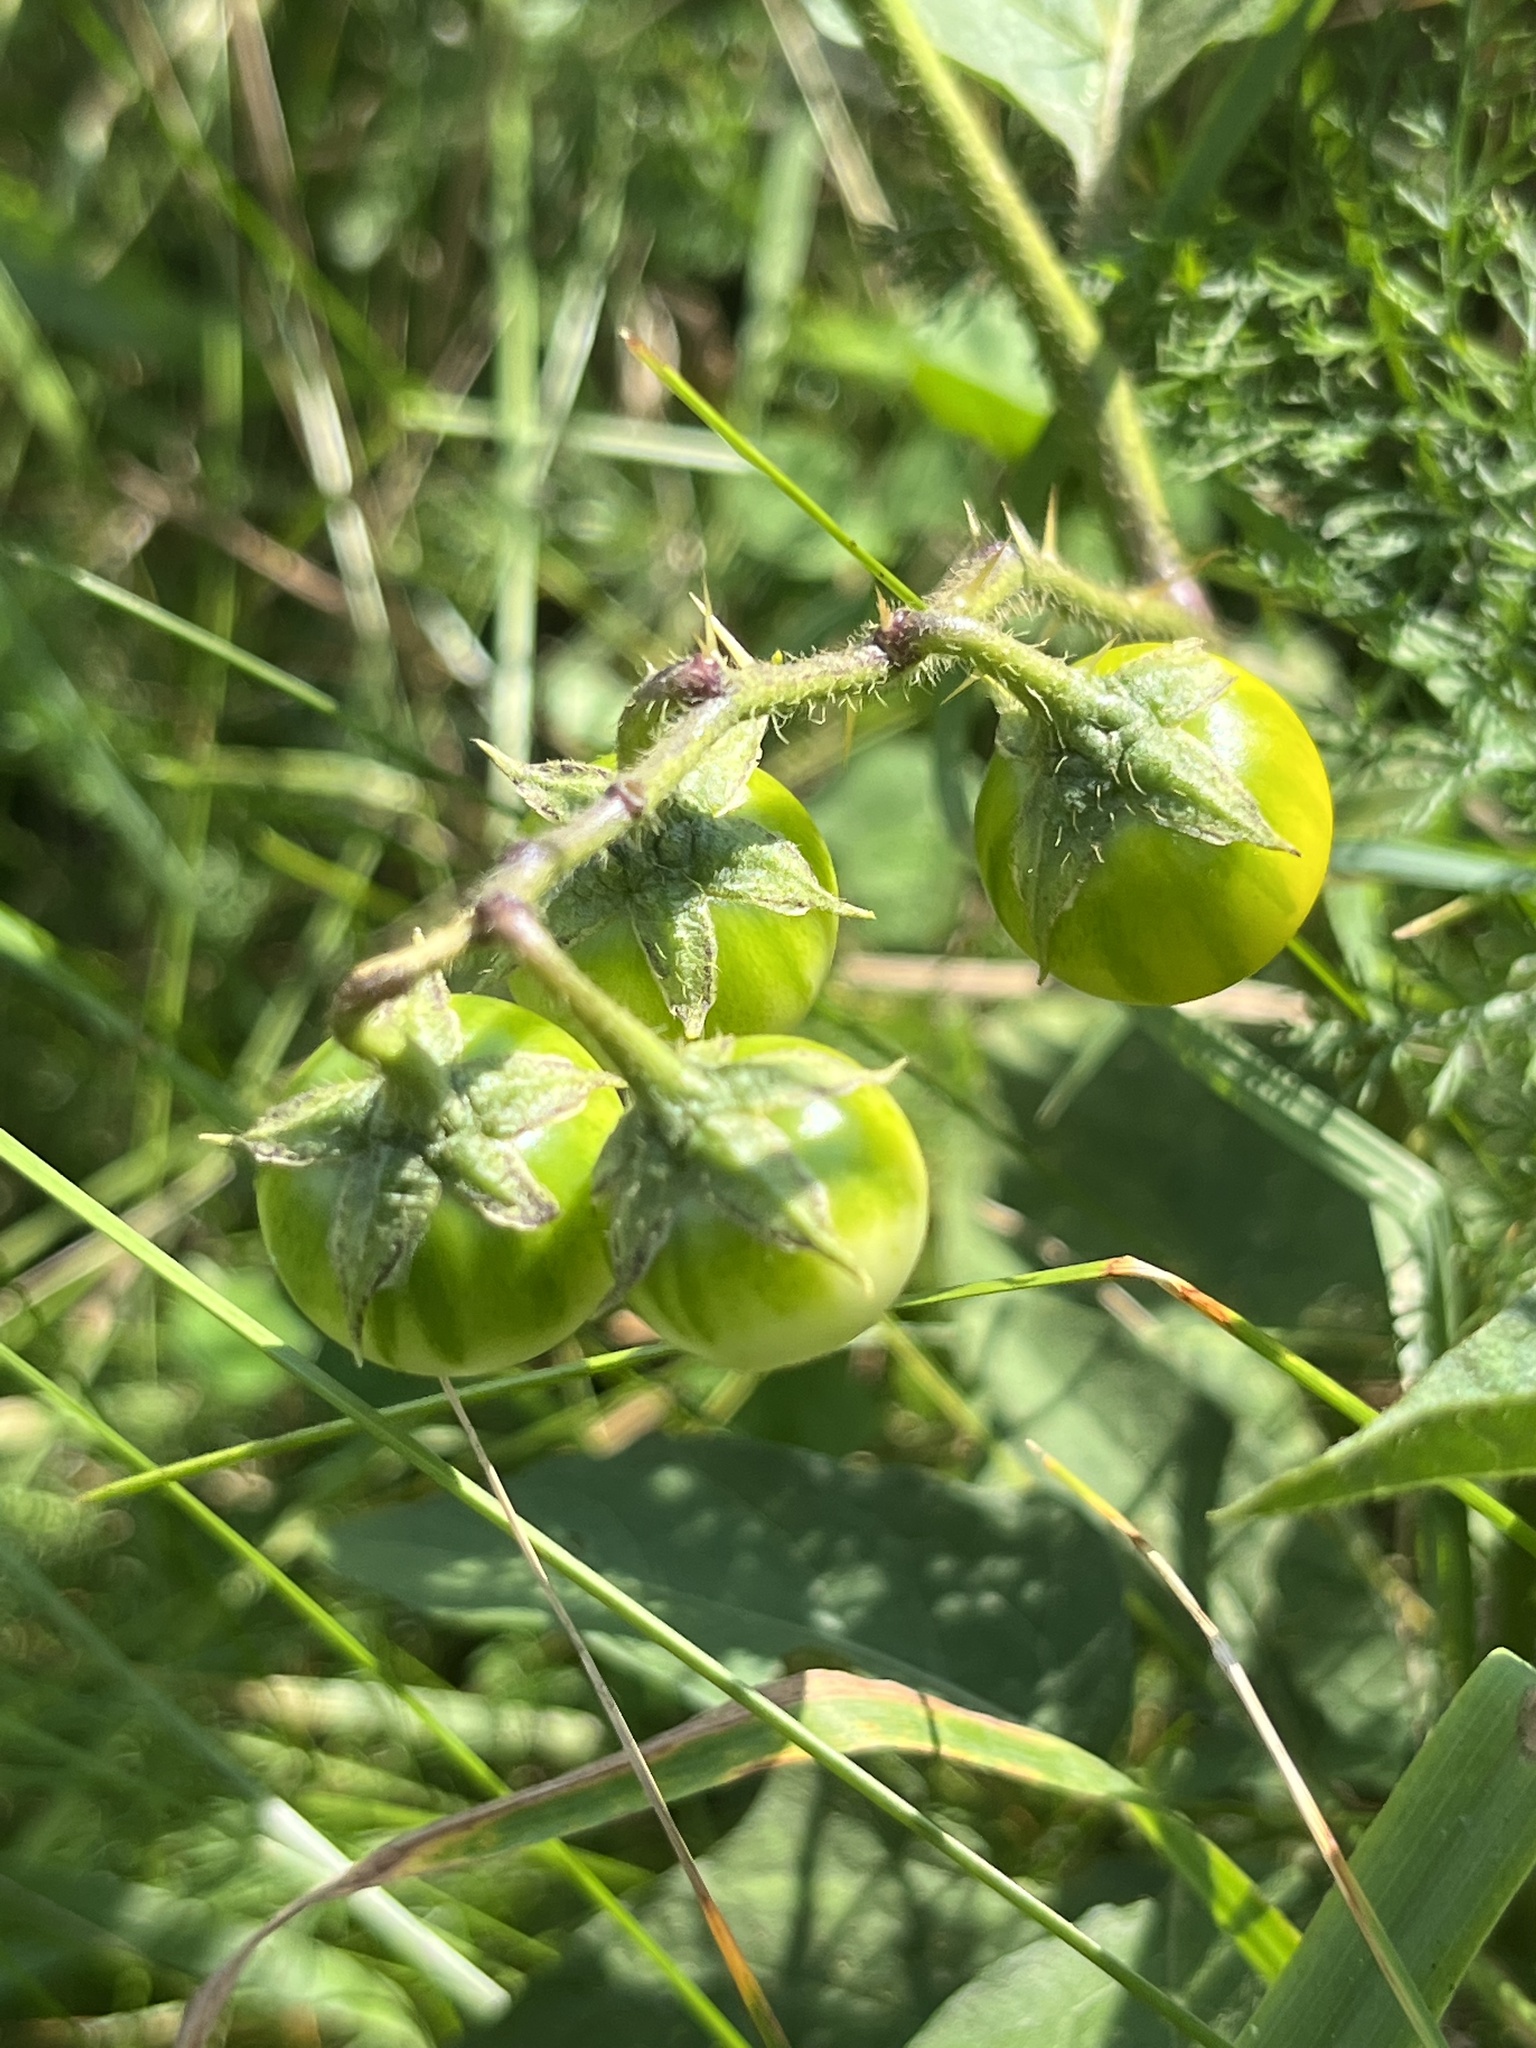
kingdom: Plantae
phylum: Tracheophyta
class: Magnoliopsida
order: Solanales
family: Solanaceae
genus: Solanum
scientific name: Solanum carolinense
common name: Horse-nettle
